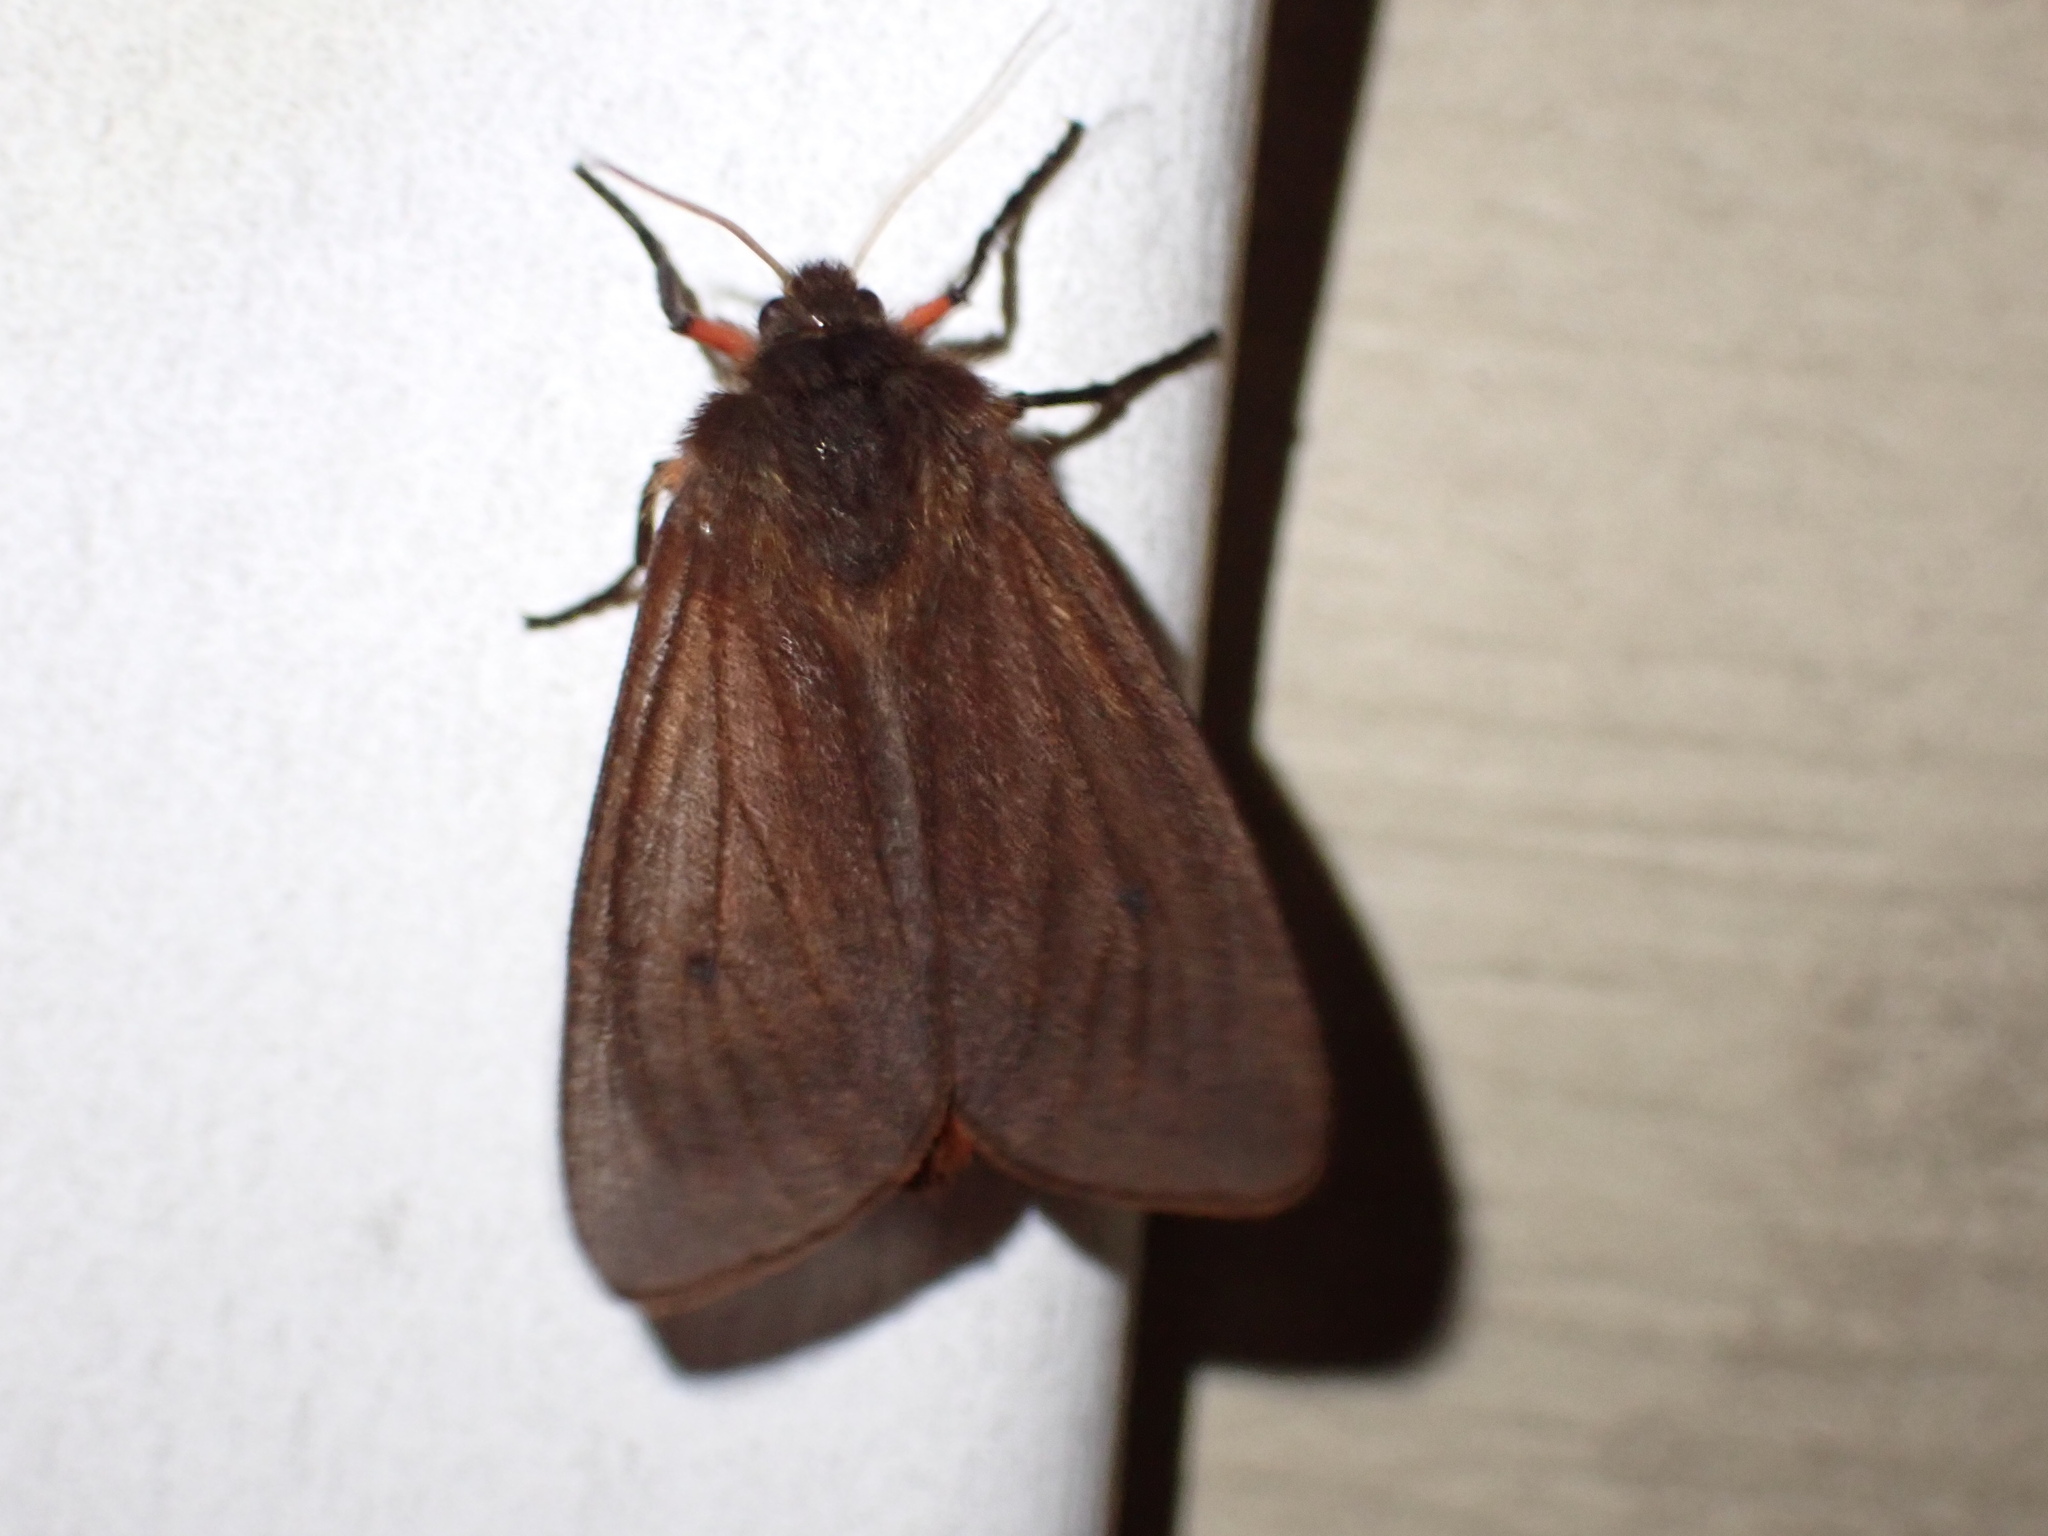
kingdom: Animalia
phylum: Arthropoda
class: Insecta
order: Lepidoptera
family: Erebidae
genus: Phragmatobia
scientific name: Phragmatobia fuliginosa
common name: Ruby tiger
